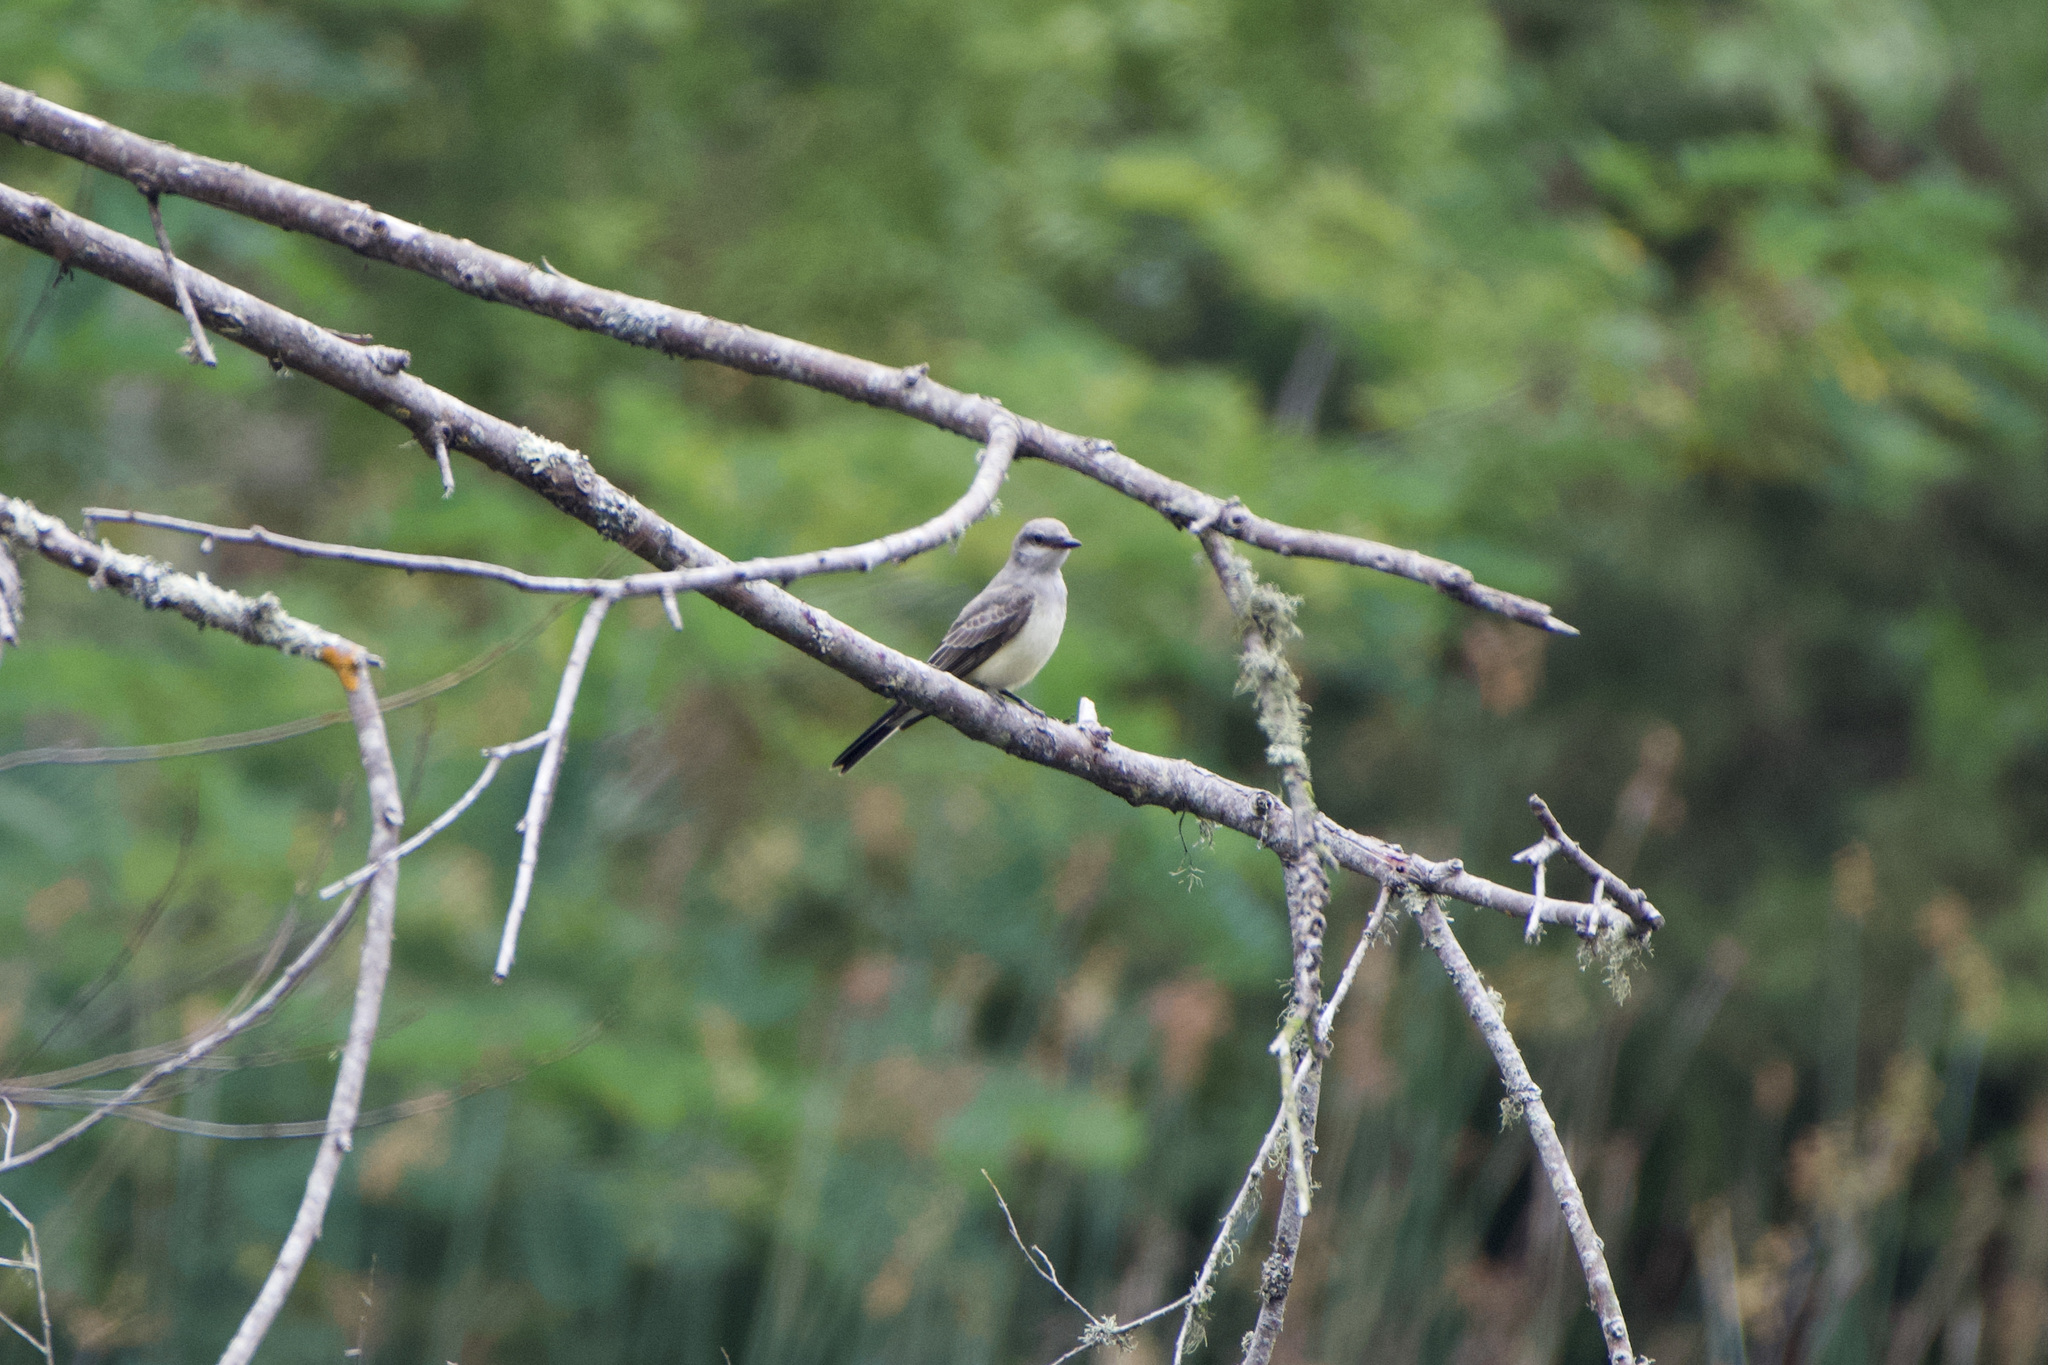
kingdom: Animalia
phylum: Chordata
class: Aves
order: Passeriformes
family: Tyrannidae
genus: Tyrannus
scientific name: Tyrannus verticalis
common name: Western kingbird
